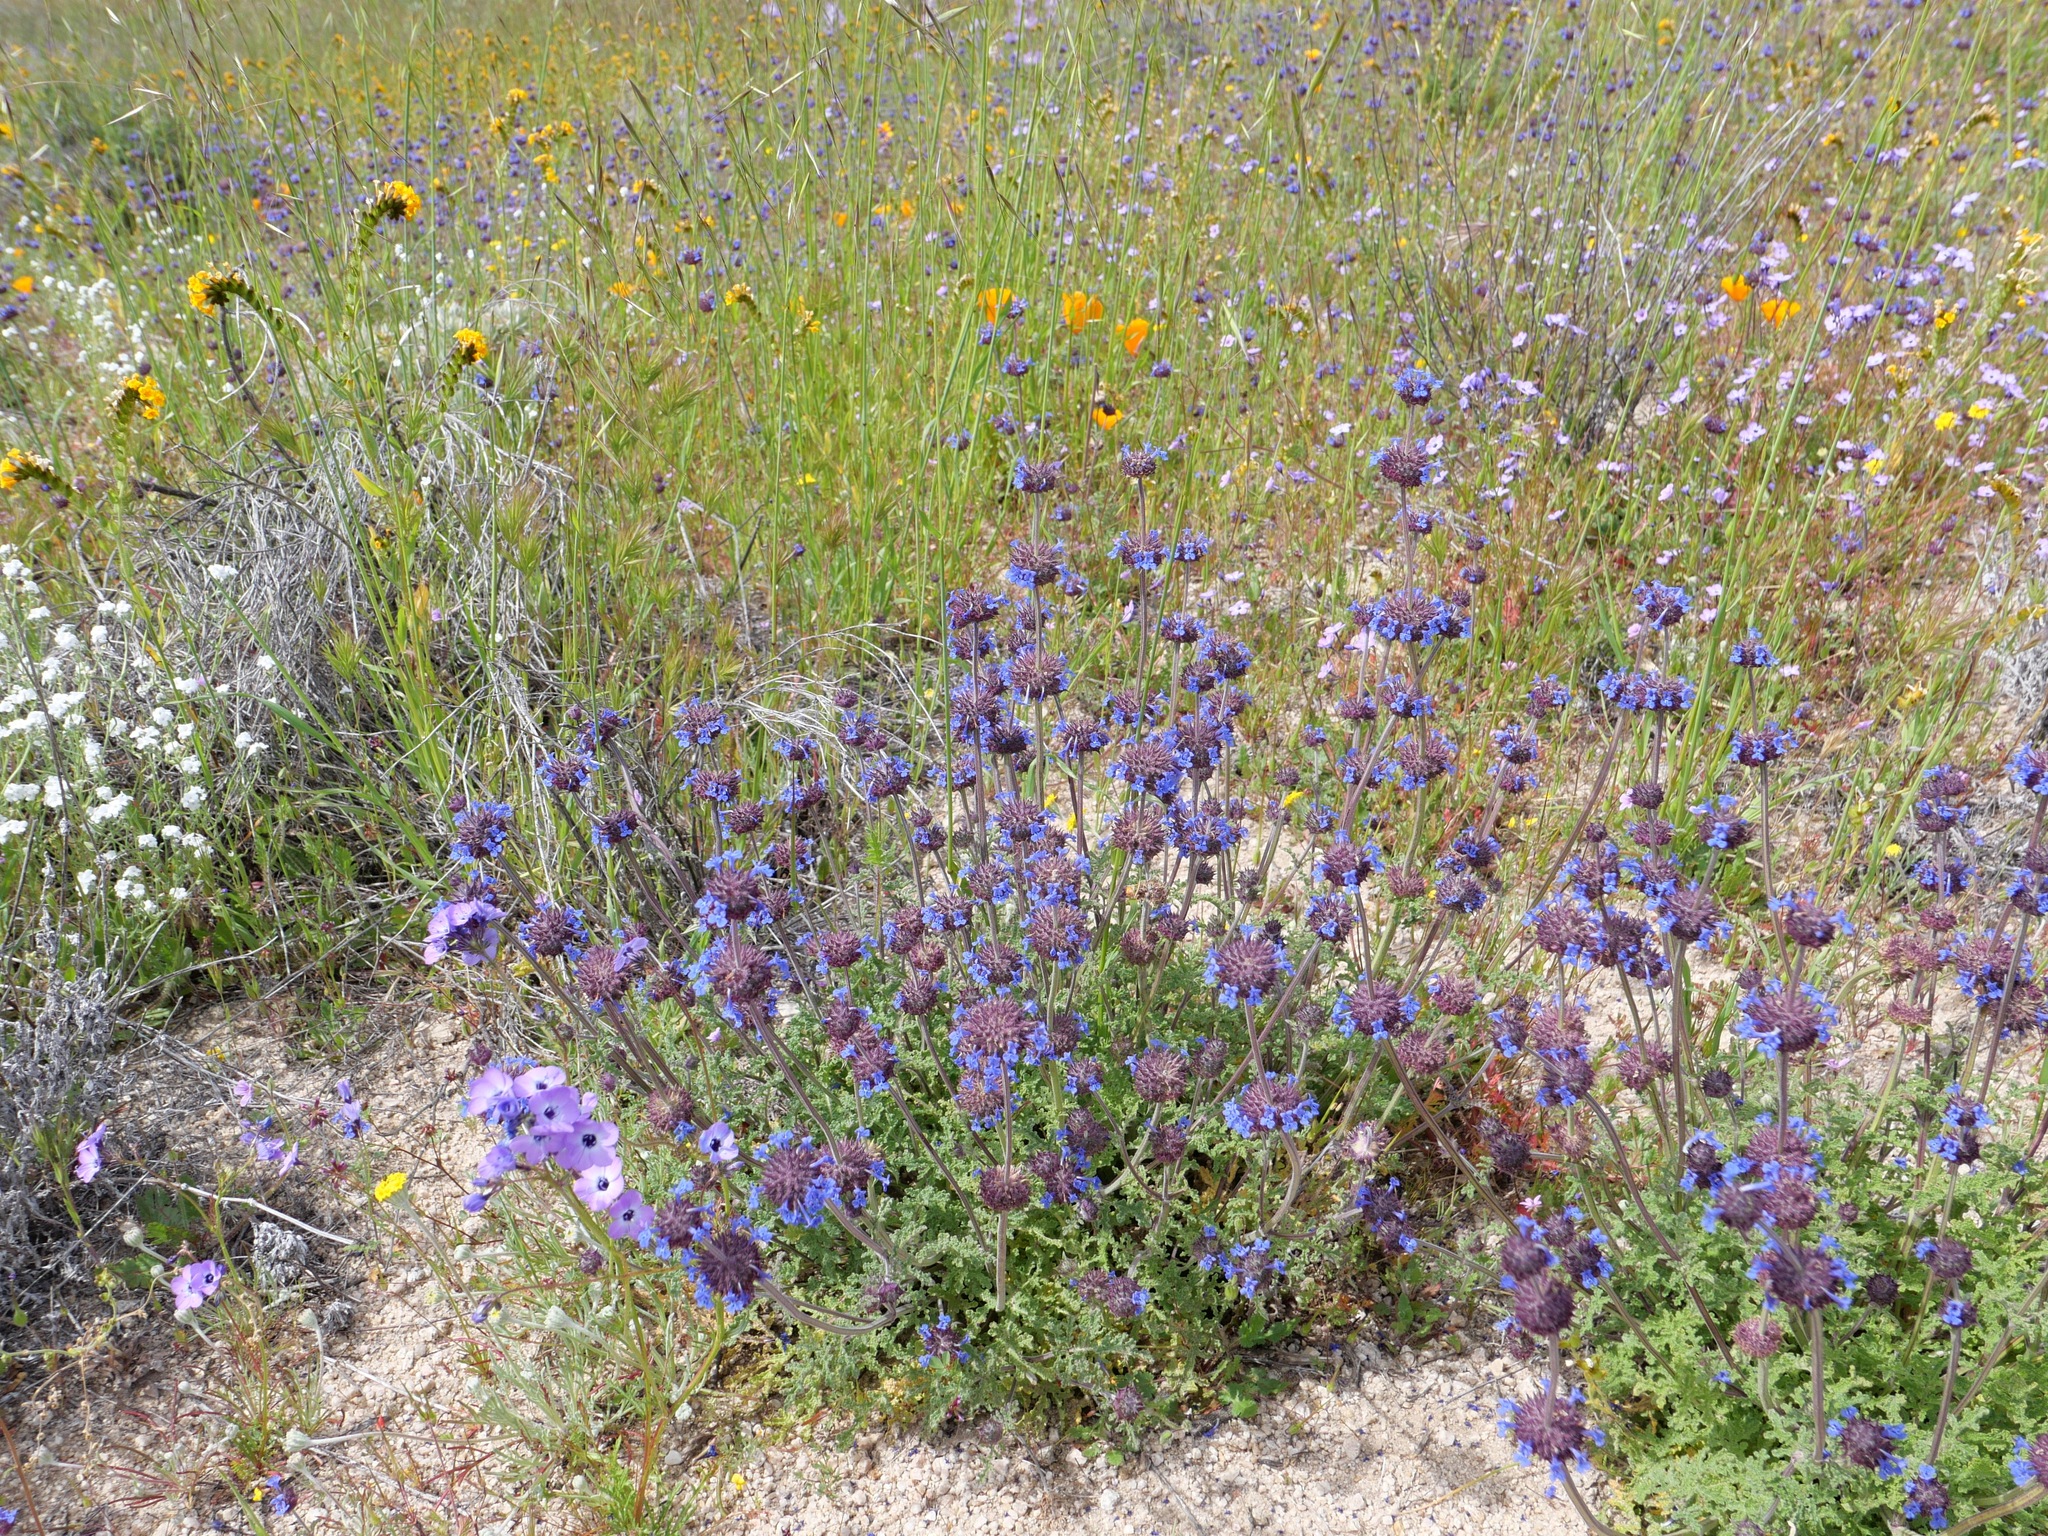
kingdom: Plantae
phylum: Tracheophyta
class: Magnoliopsida
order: Lamiales
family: Lamiaceae
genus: Salvia
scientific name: Salvia columbariae
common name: Chia
